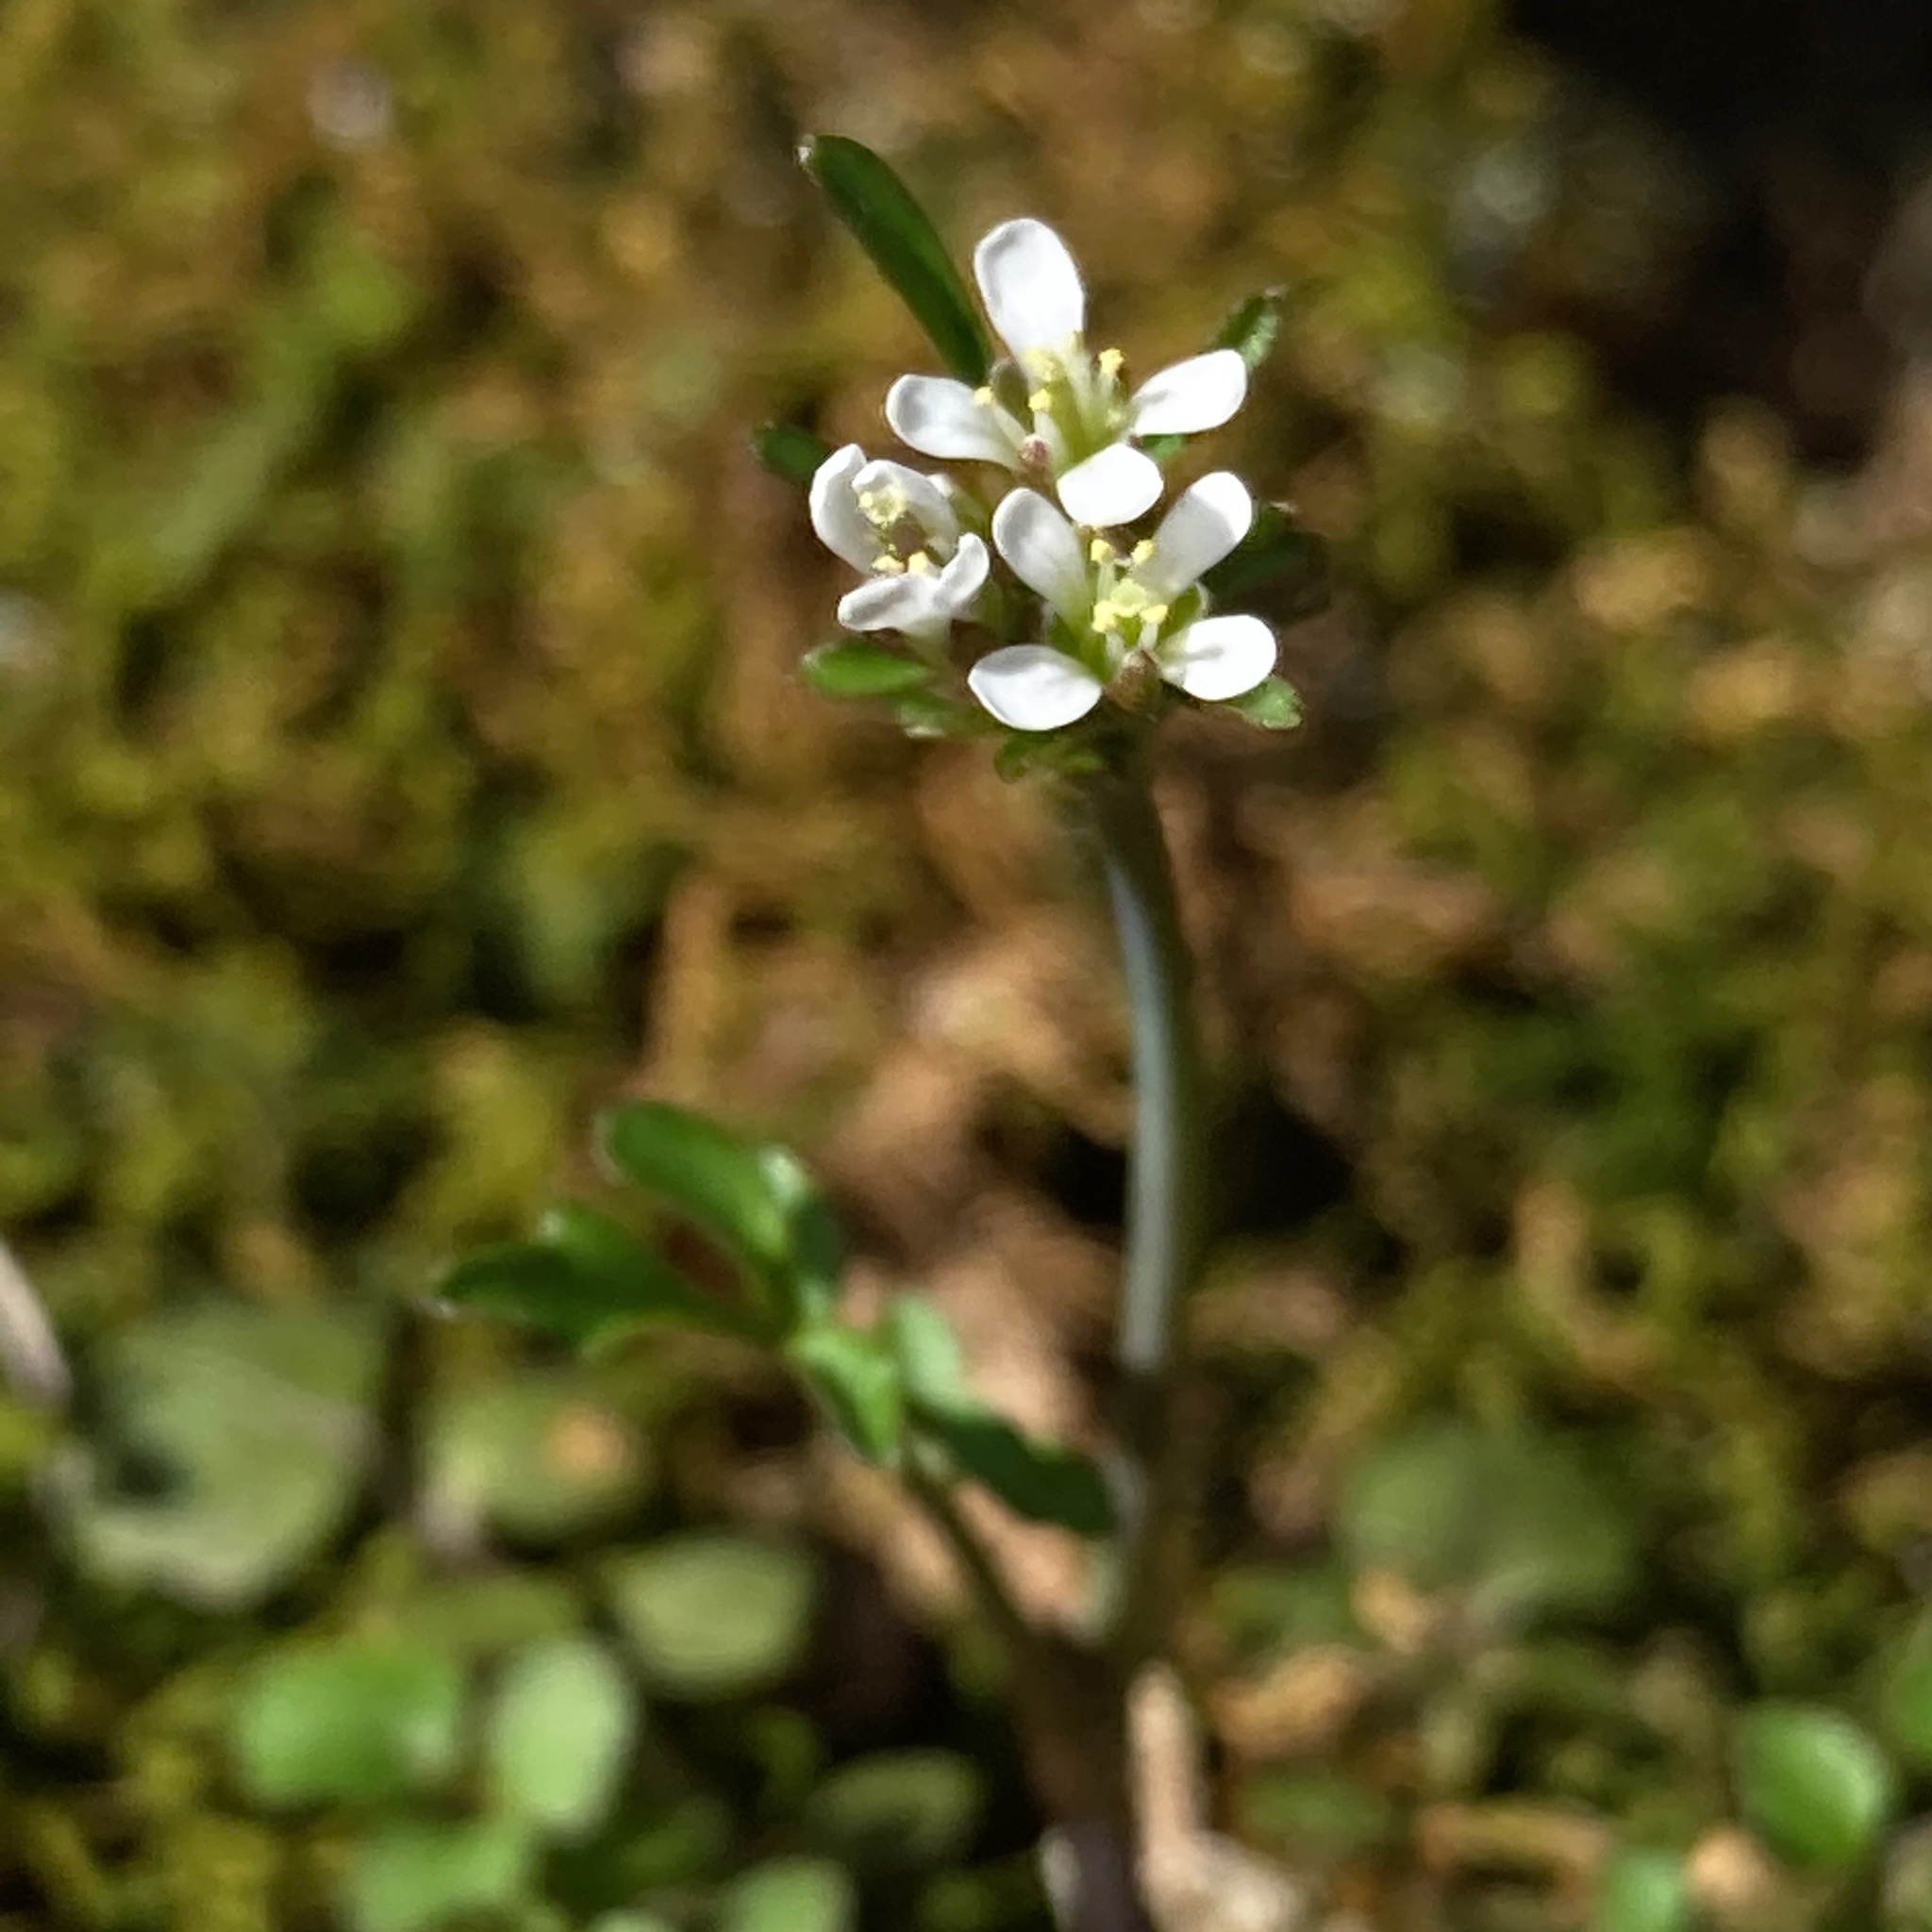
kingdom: Plantae
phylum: Tracheophyta
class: Magnoliopsida
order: Brassicales
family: Brassicaceae
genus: Cardamine
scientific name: Cardamine hirsuta
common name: Hairy bittercress
